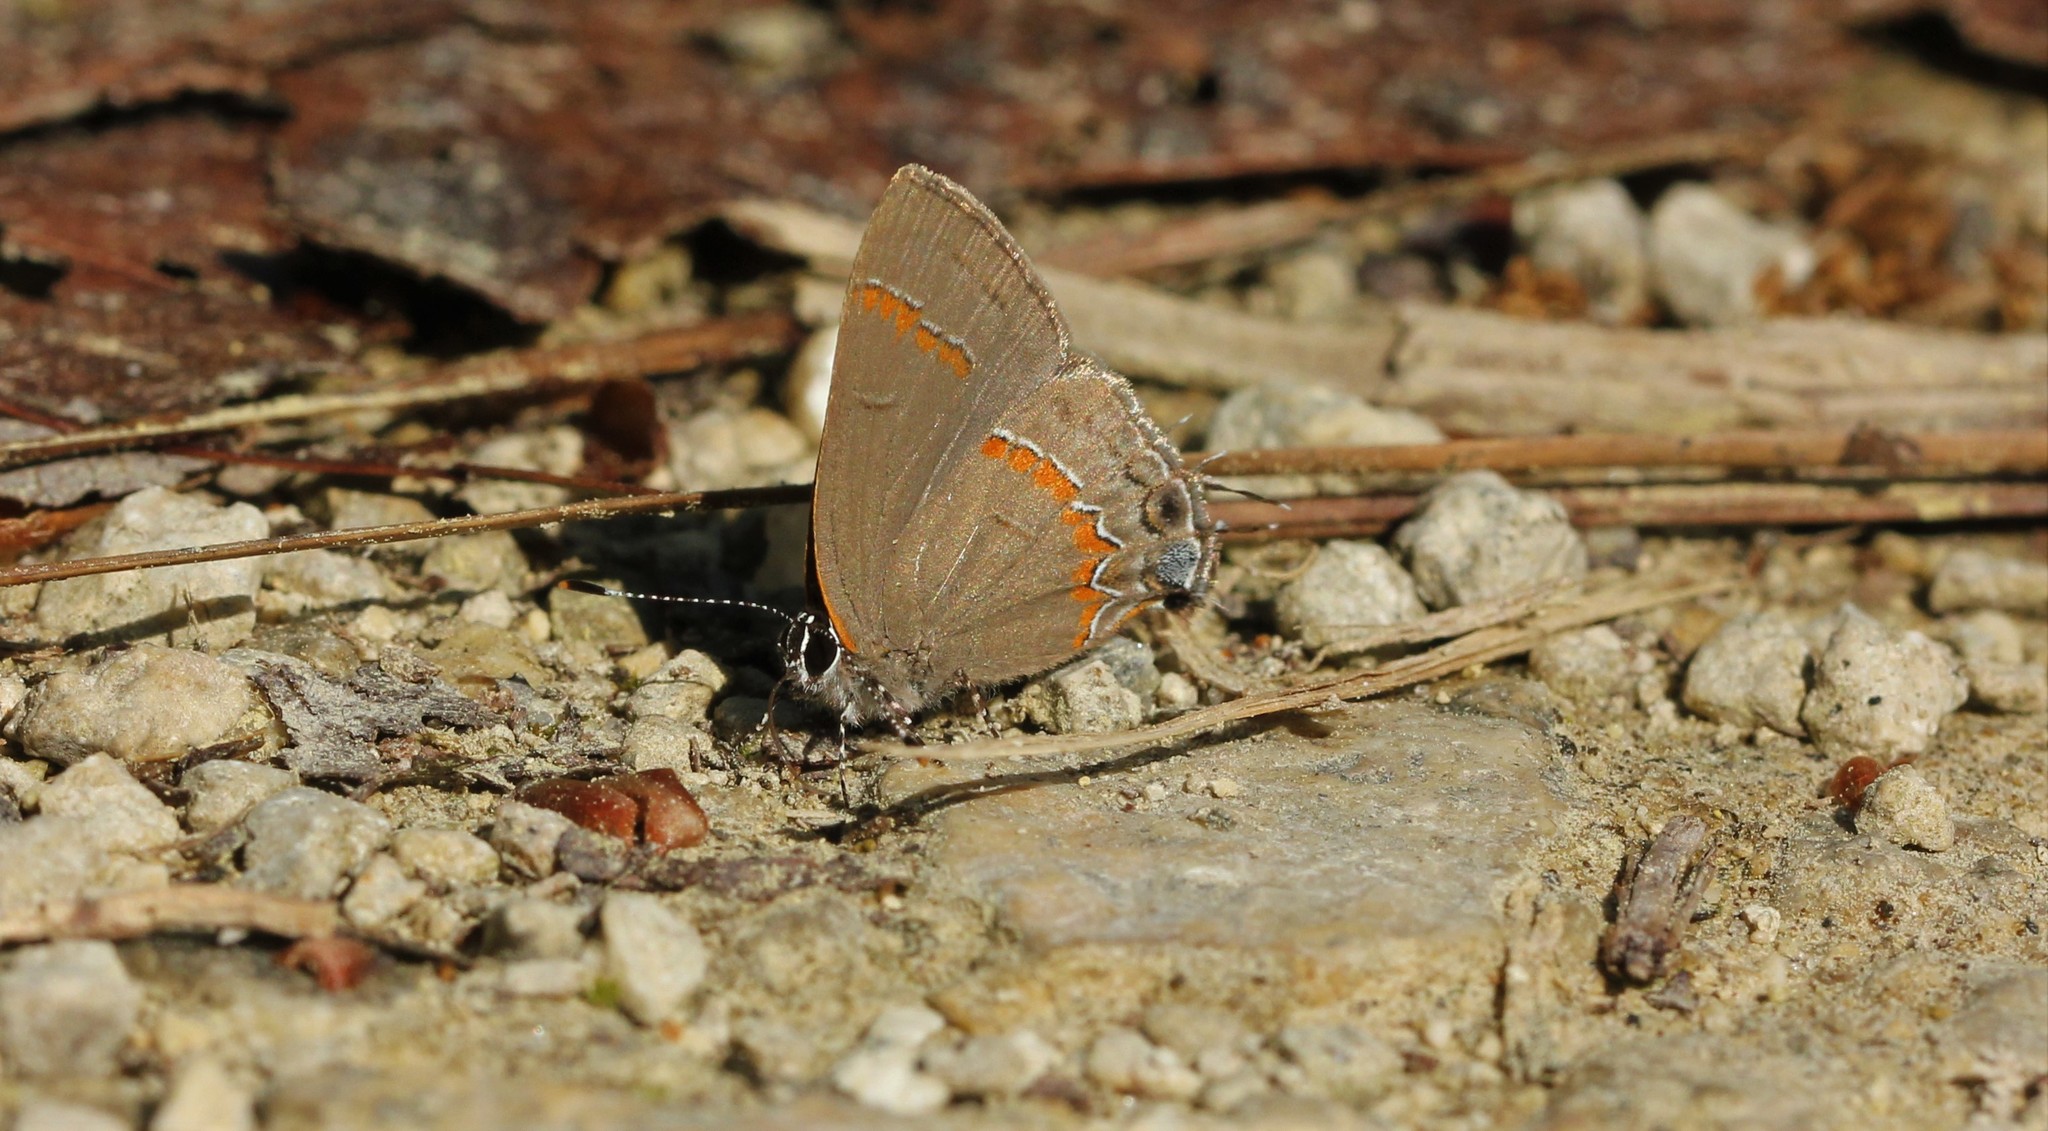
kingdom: Animalia
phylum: Arthropoda
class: Insecta
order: Lepidoptera
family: Lycaenidae
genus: Calycopis
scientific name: Calycopis cecrops
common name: Red-banded hairstreak
